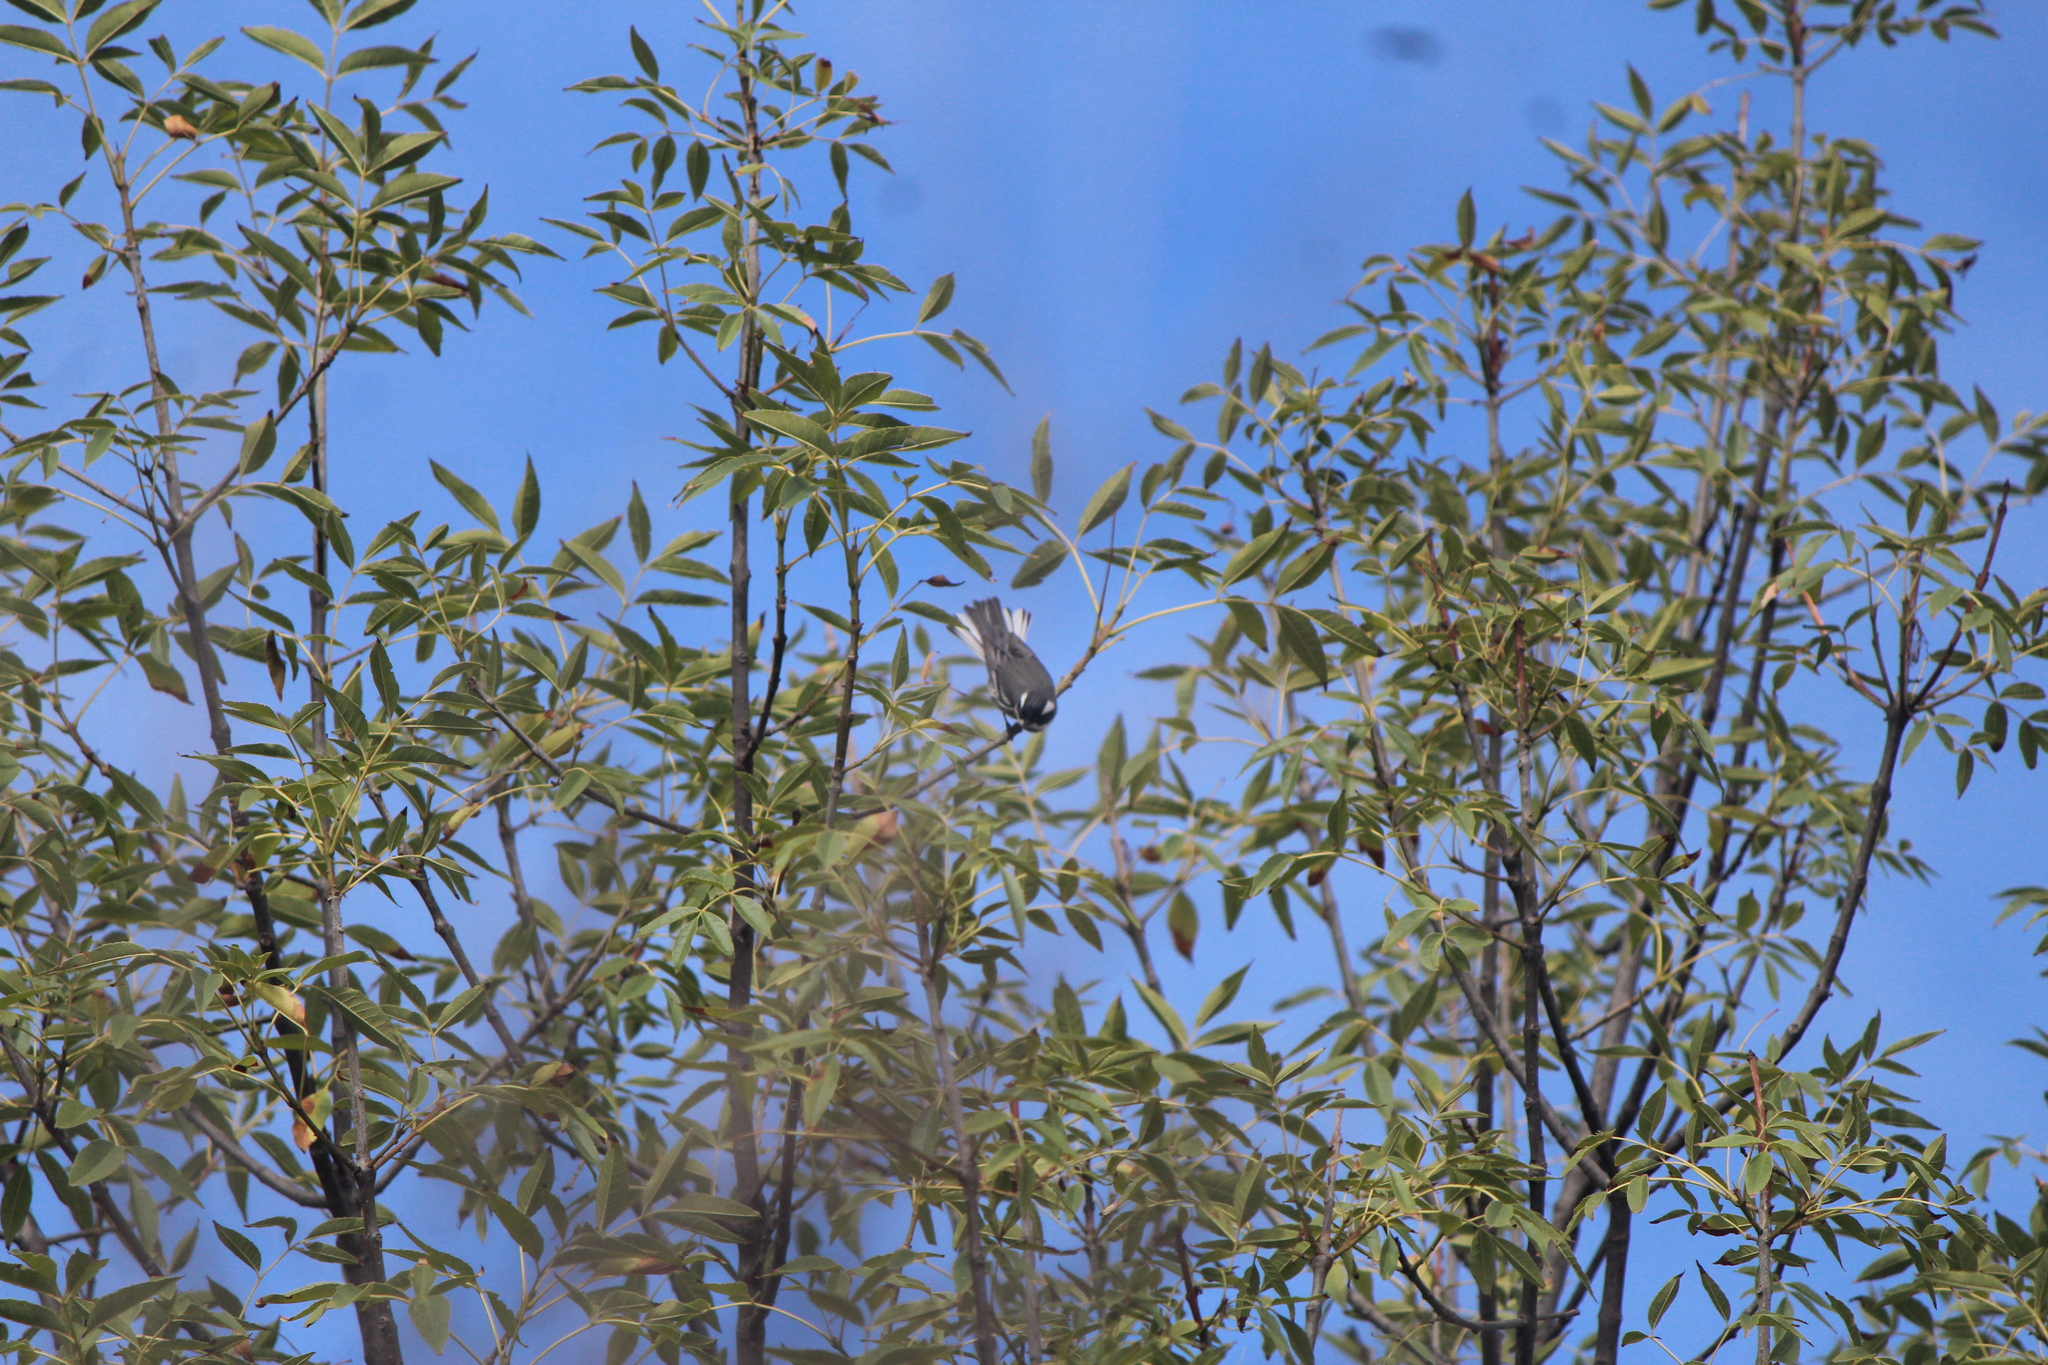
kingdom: Animalia
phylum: Chordata
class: Aves
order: Passeriformes
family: Parulidae
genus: Setophaga
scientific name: Setophaga nigrescens
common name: Black-throated gray warbler
